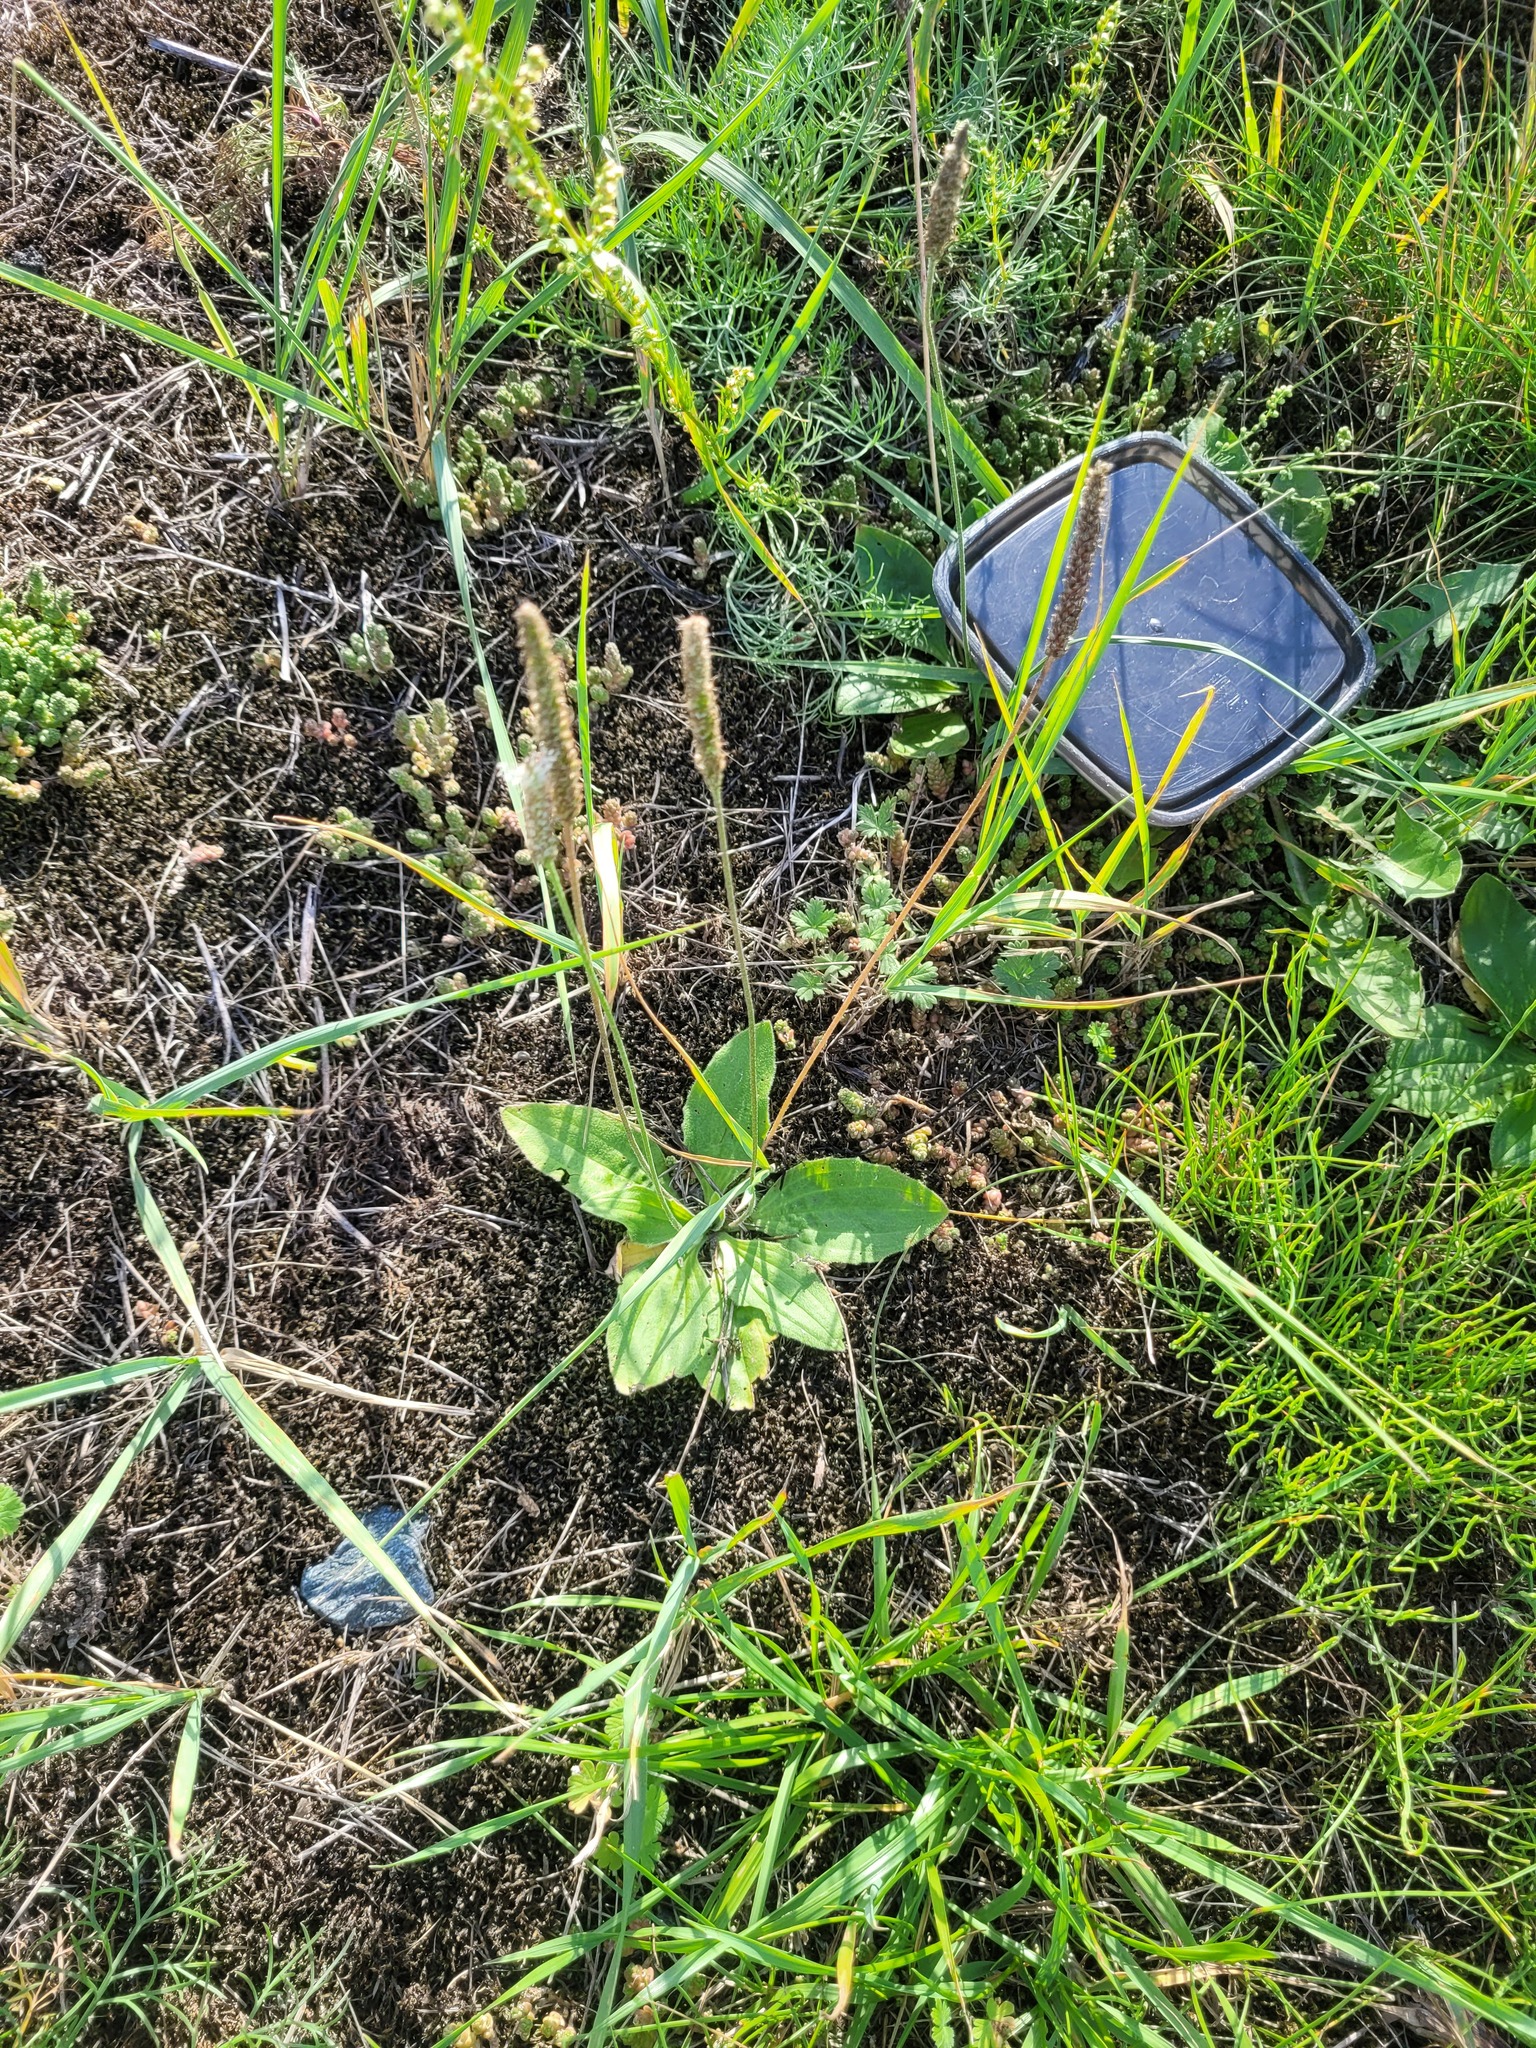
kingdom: Plantae
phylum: Tracheophyta
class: Magnoliopsida
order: Lamiales
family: Plantaginaceae
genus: Plantago
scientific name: Plantago media
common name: Hoary plantain
